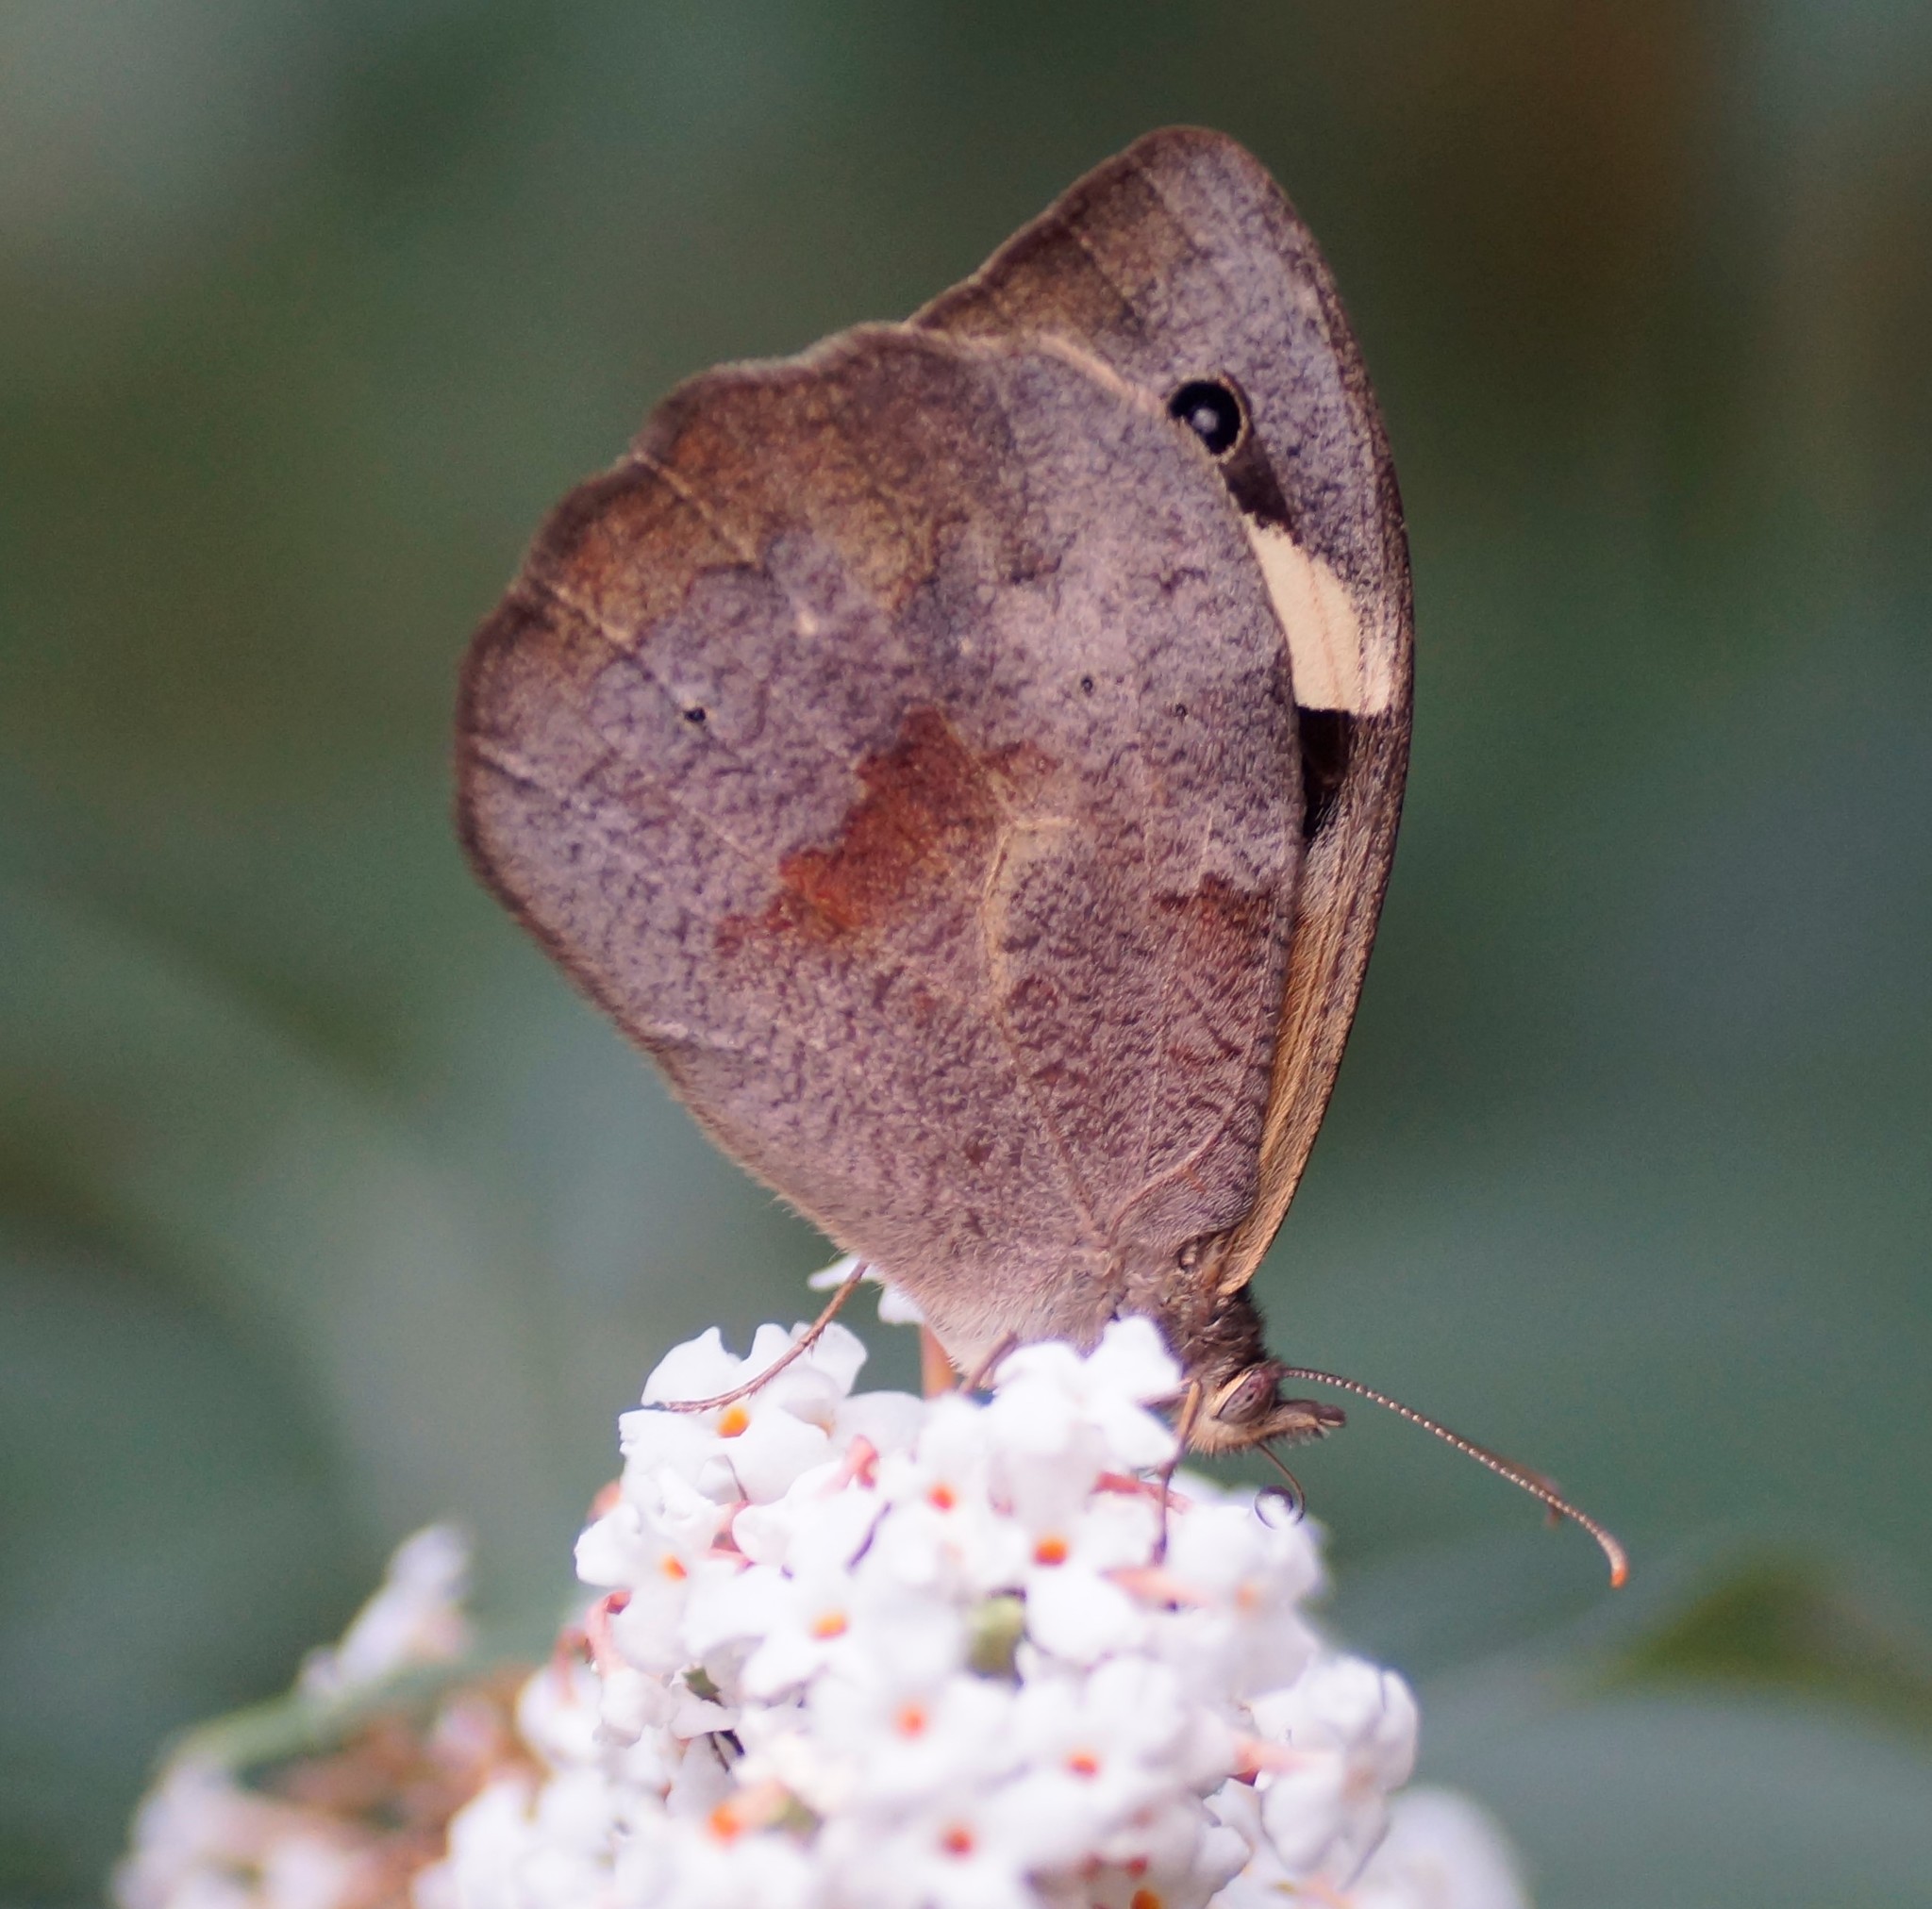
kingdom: Animalia
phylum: Arthropoda
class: Insecta
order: Lepidoptera
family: Nymphalidae
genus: Heteronympha
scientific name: Heteronympha merope
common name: Common brown
